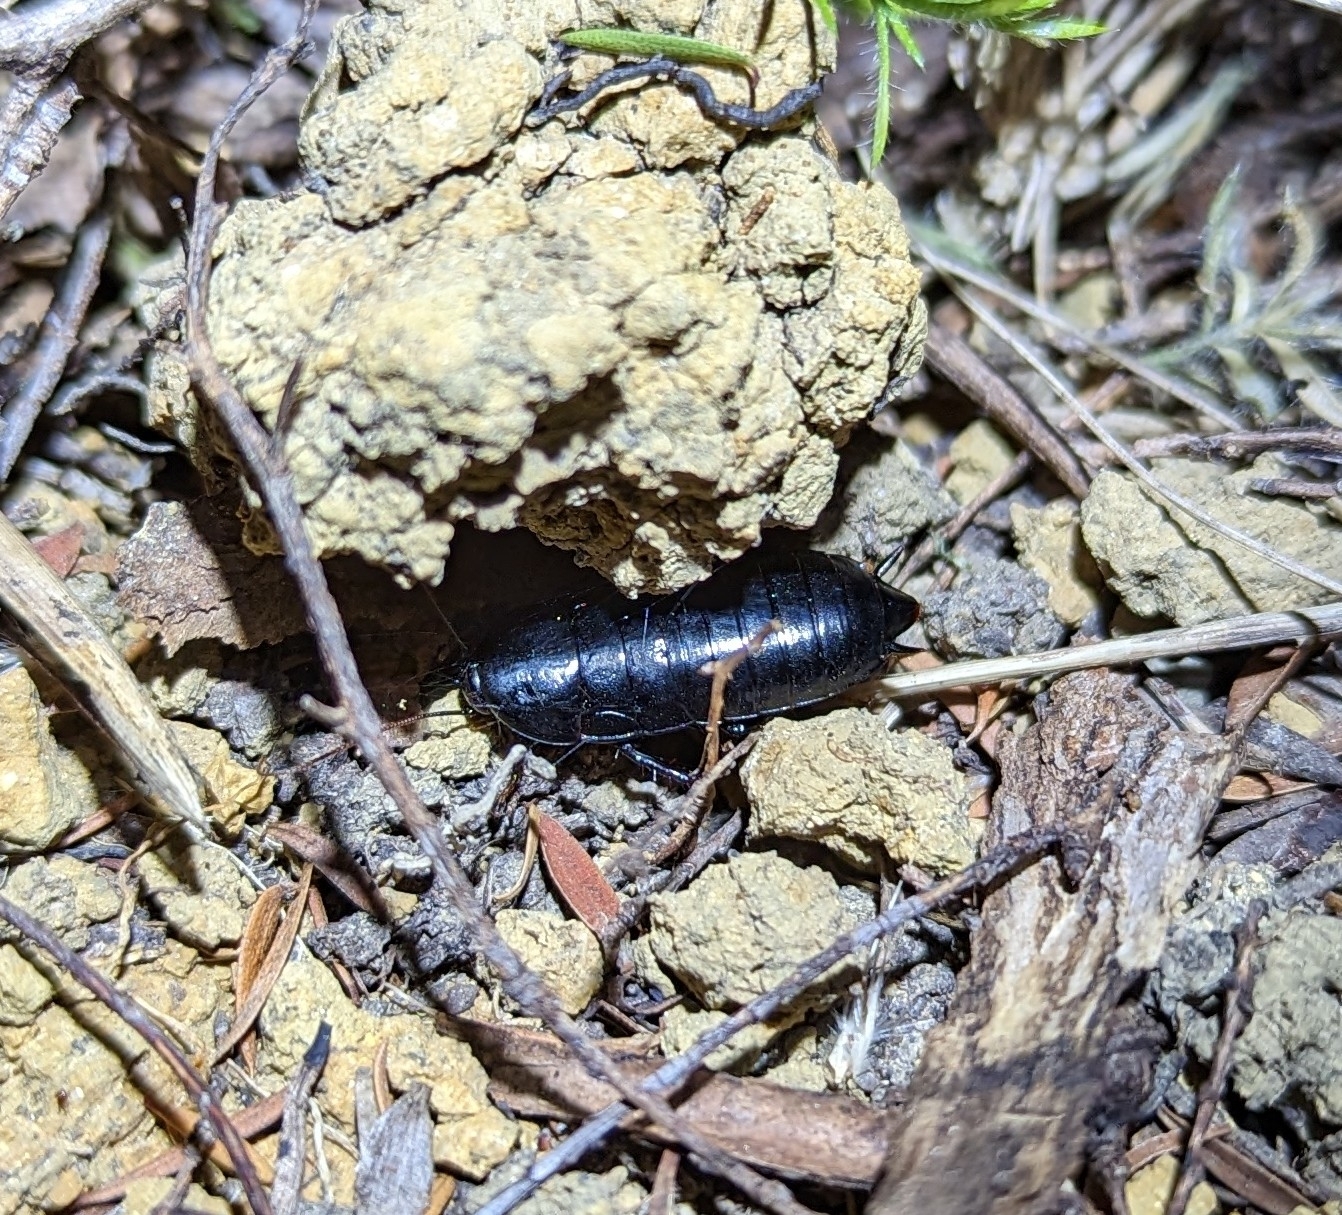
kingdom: Animalia
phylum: Arthropoda
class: Insecta
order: Blattodea
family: Blattidae
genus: Maoriblatta
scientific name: Maoriblatta novaeseelandiae
